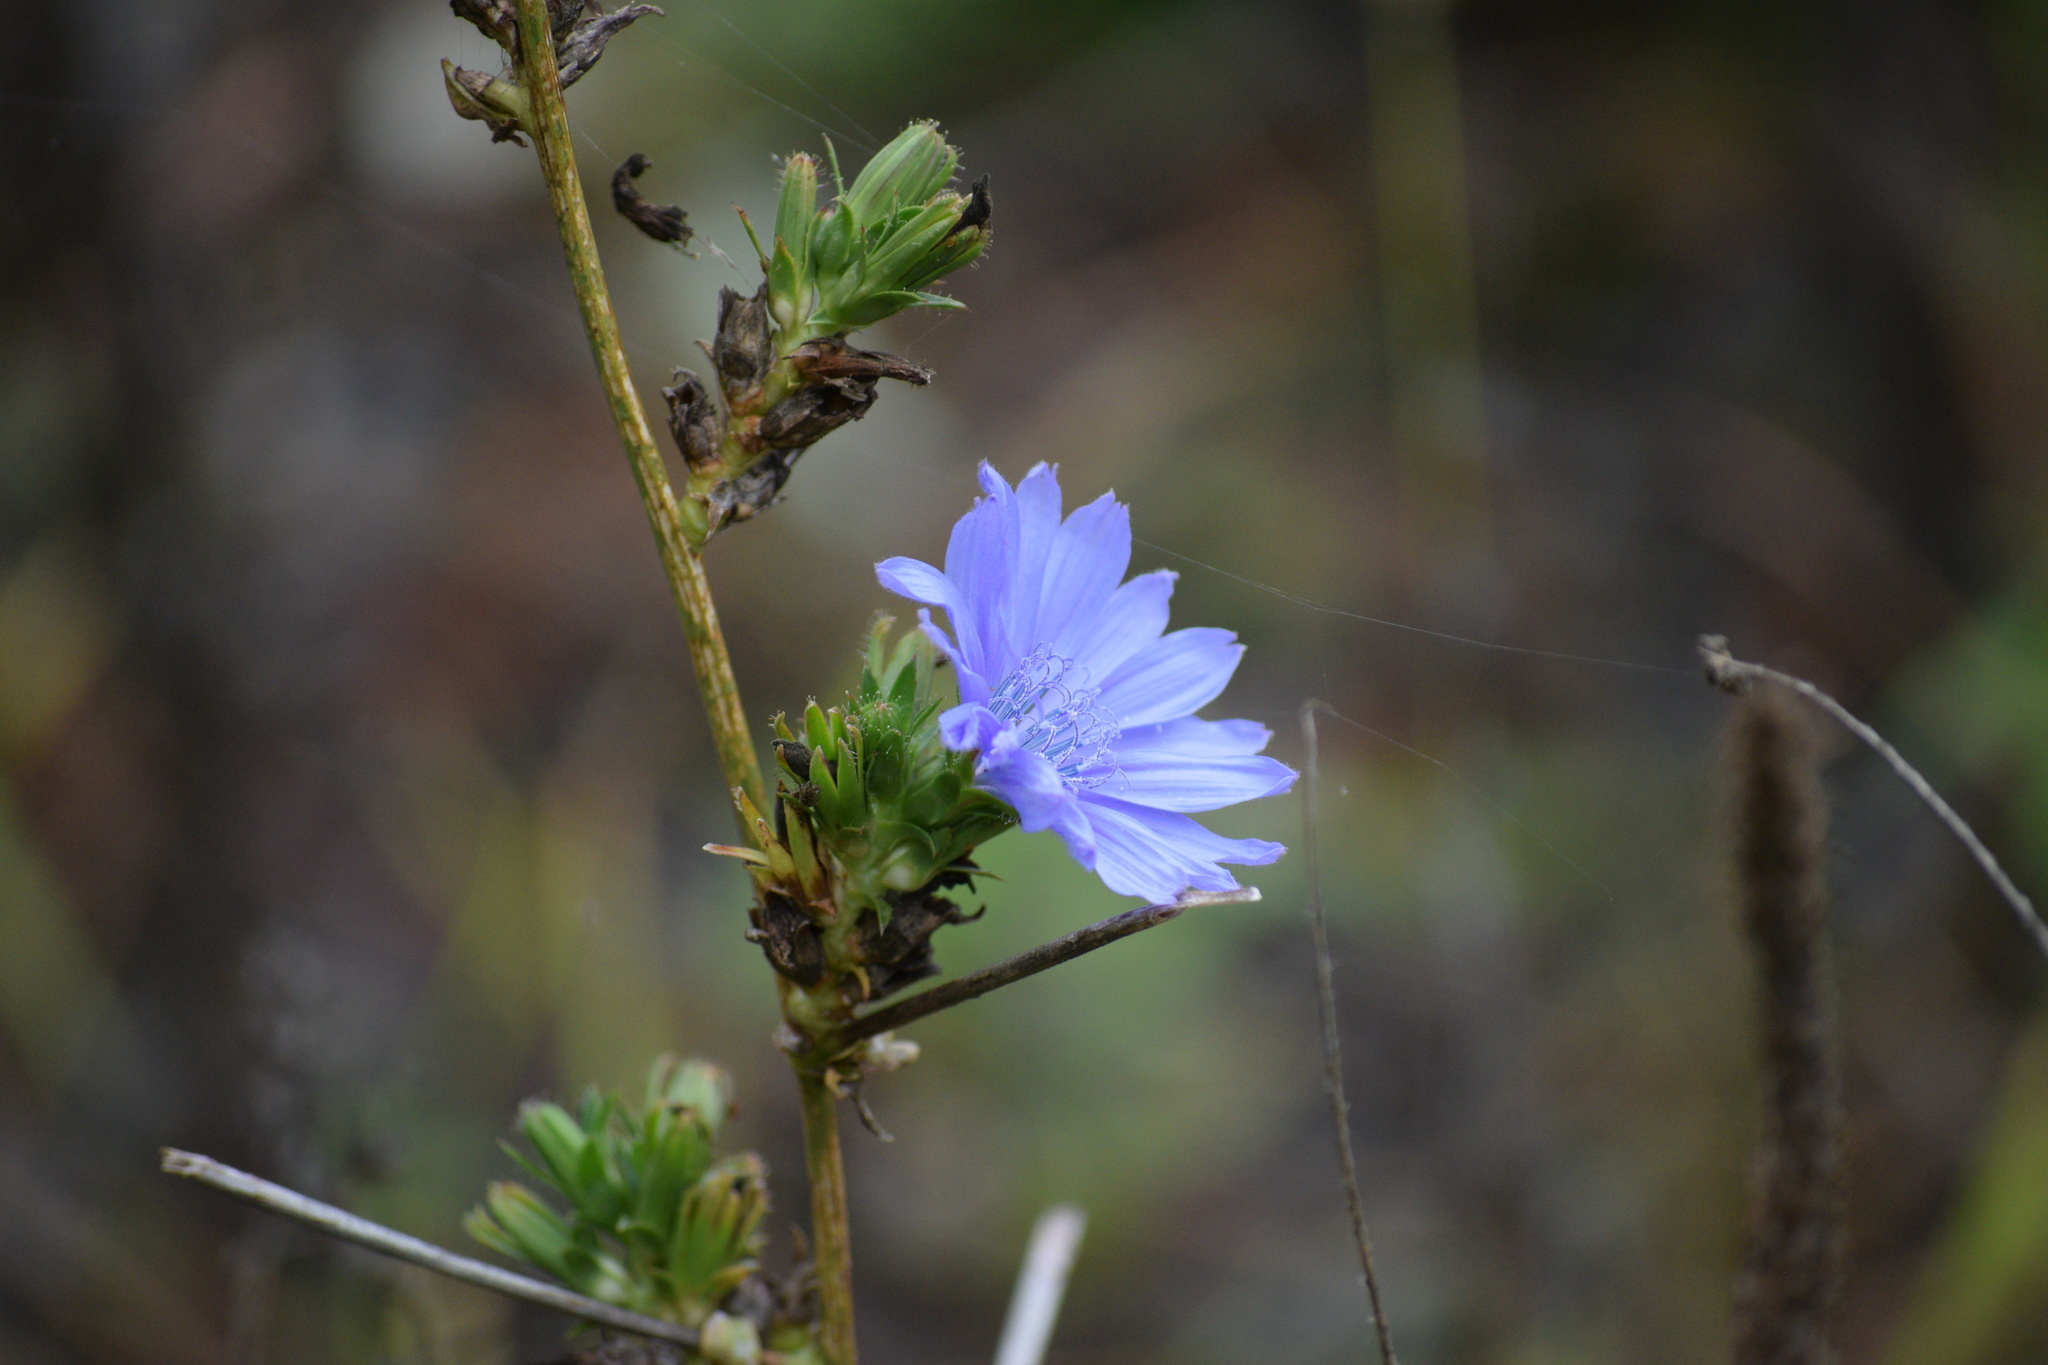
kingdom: Plantae
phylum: Tracheophyta
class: Magnoliopsida
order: Asterales
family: Asteraceae
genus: Cichorium
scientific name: Cichorium intybus
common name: Chicory
